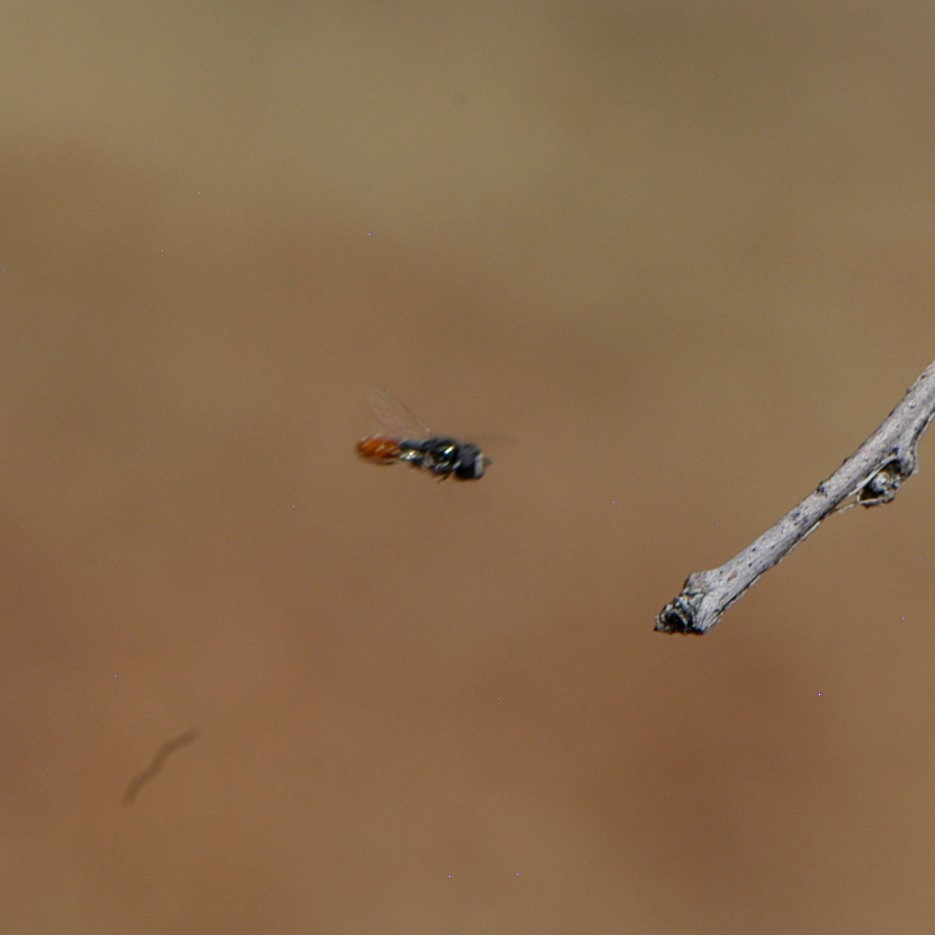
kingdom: Animalia
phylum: Arthropoda
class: Insecta
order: Diptera
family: Syrphidae
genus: Paragus
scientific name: Paragus haemorrhous
